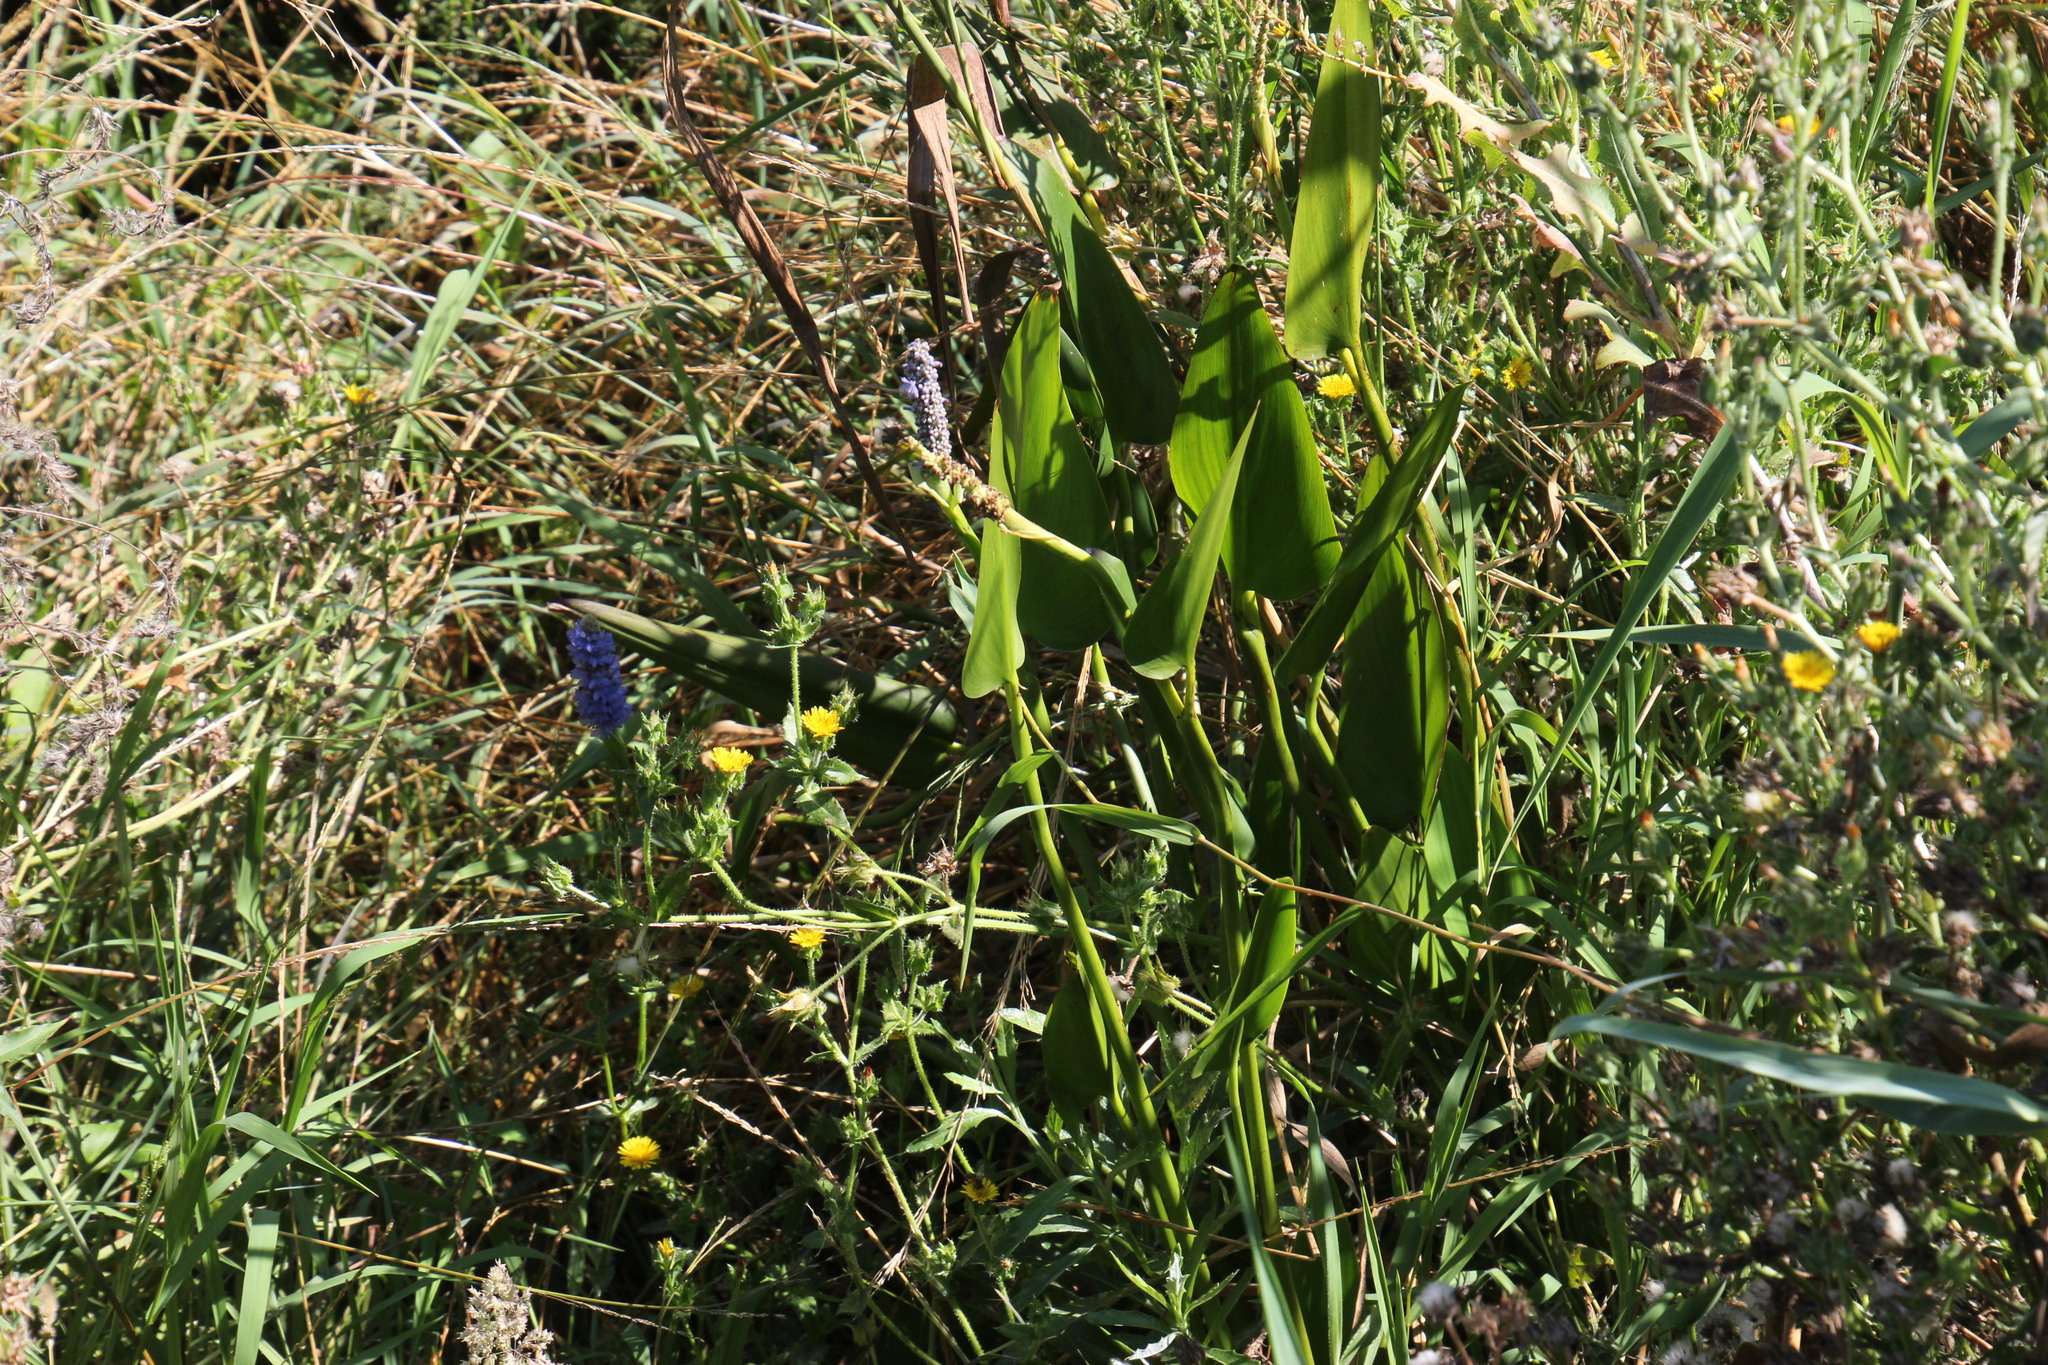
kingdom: Plantae
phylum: Tracheophyta
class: Liliopsida
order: Commelinales
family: Pontederiaceae
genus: Pontederia
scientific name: Pontederia cordata
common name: Pickerelweed
